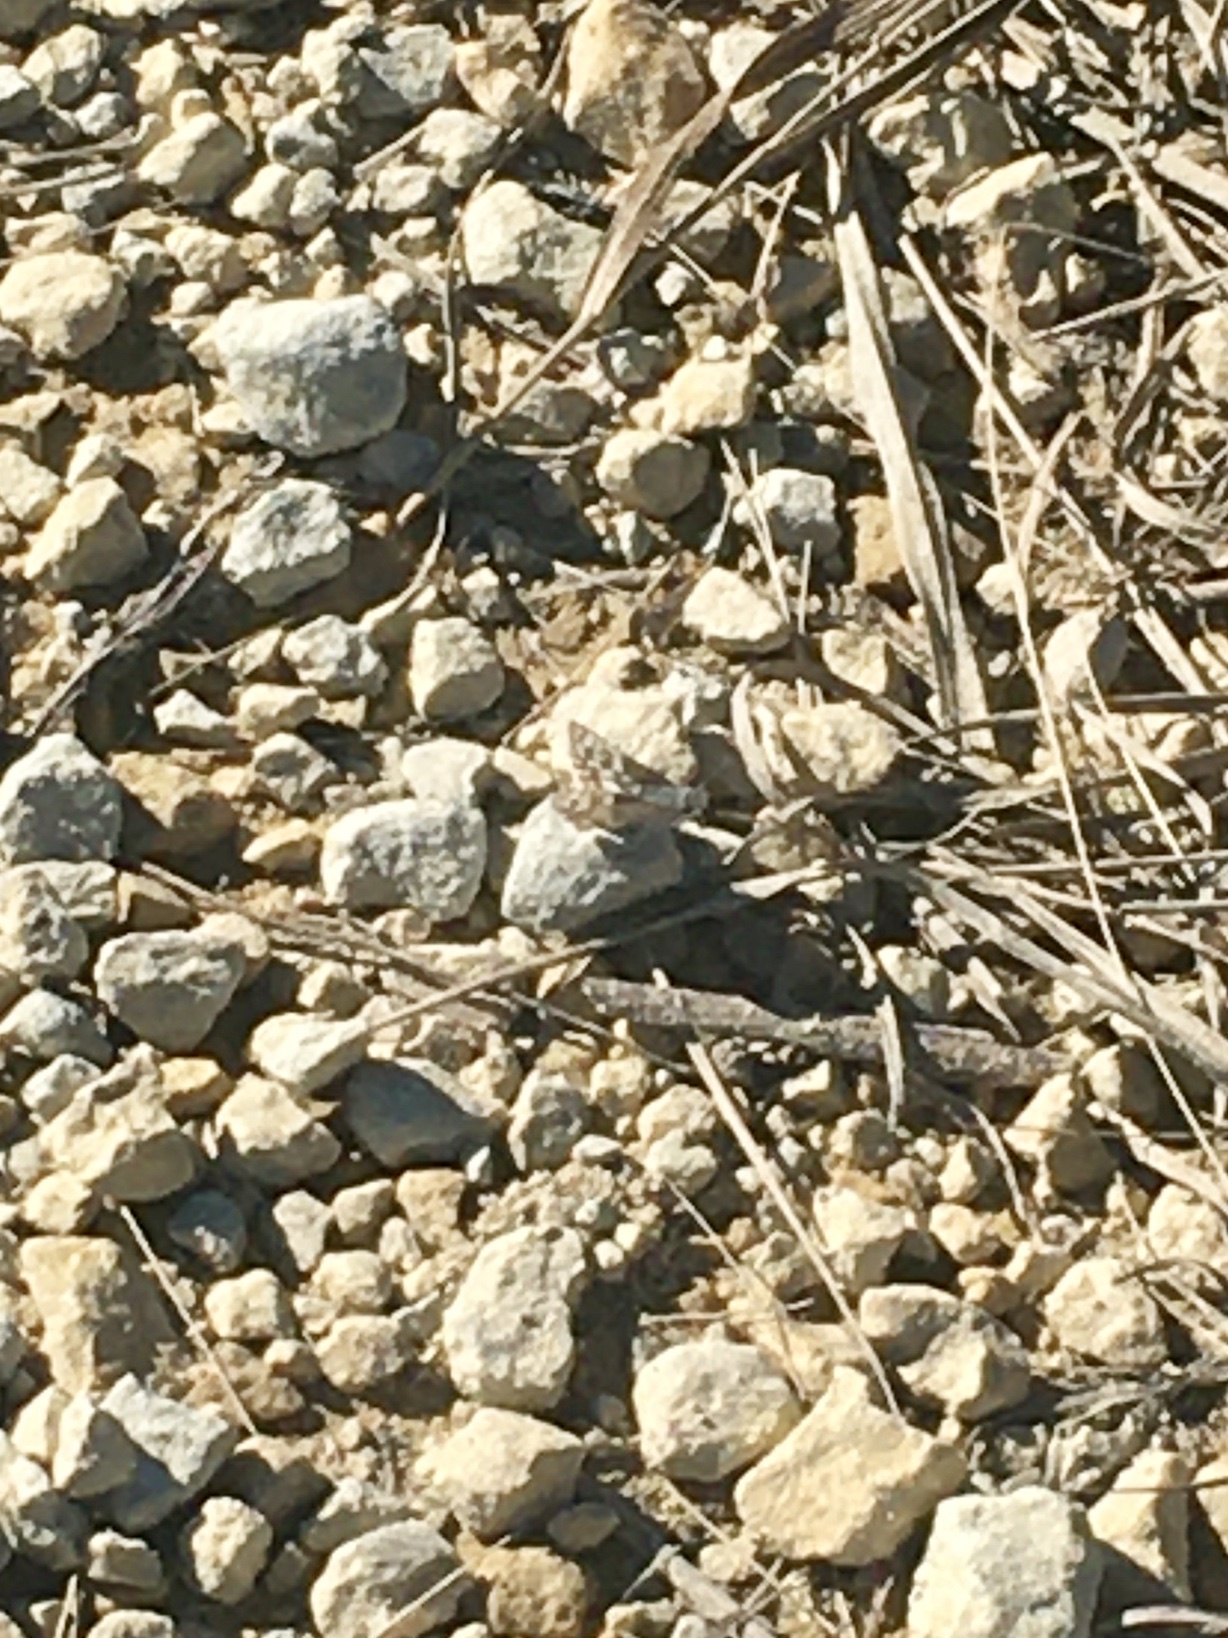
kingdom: Animalia
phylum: Arthropoda
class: Insecta
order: Lepidoptera
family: Hesperiidae
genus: Burnsius
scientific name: Burnsius communis
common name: Common checkered-skipper
